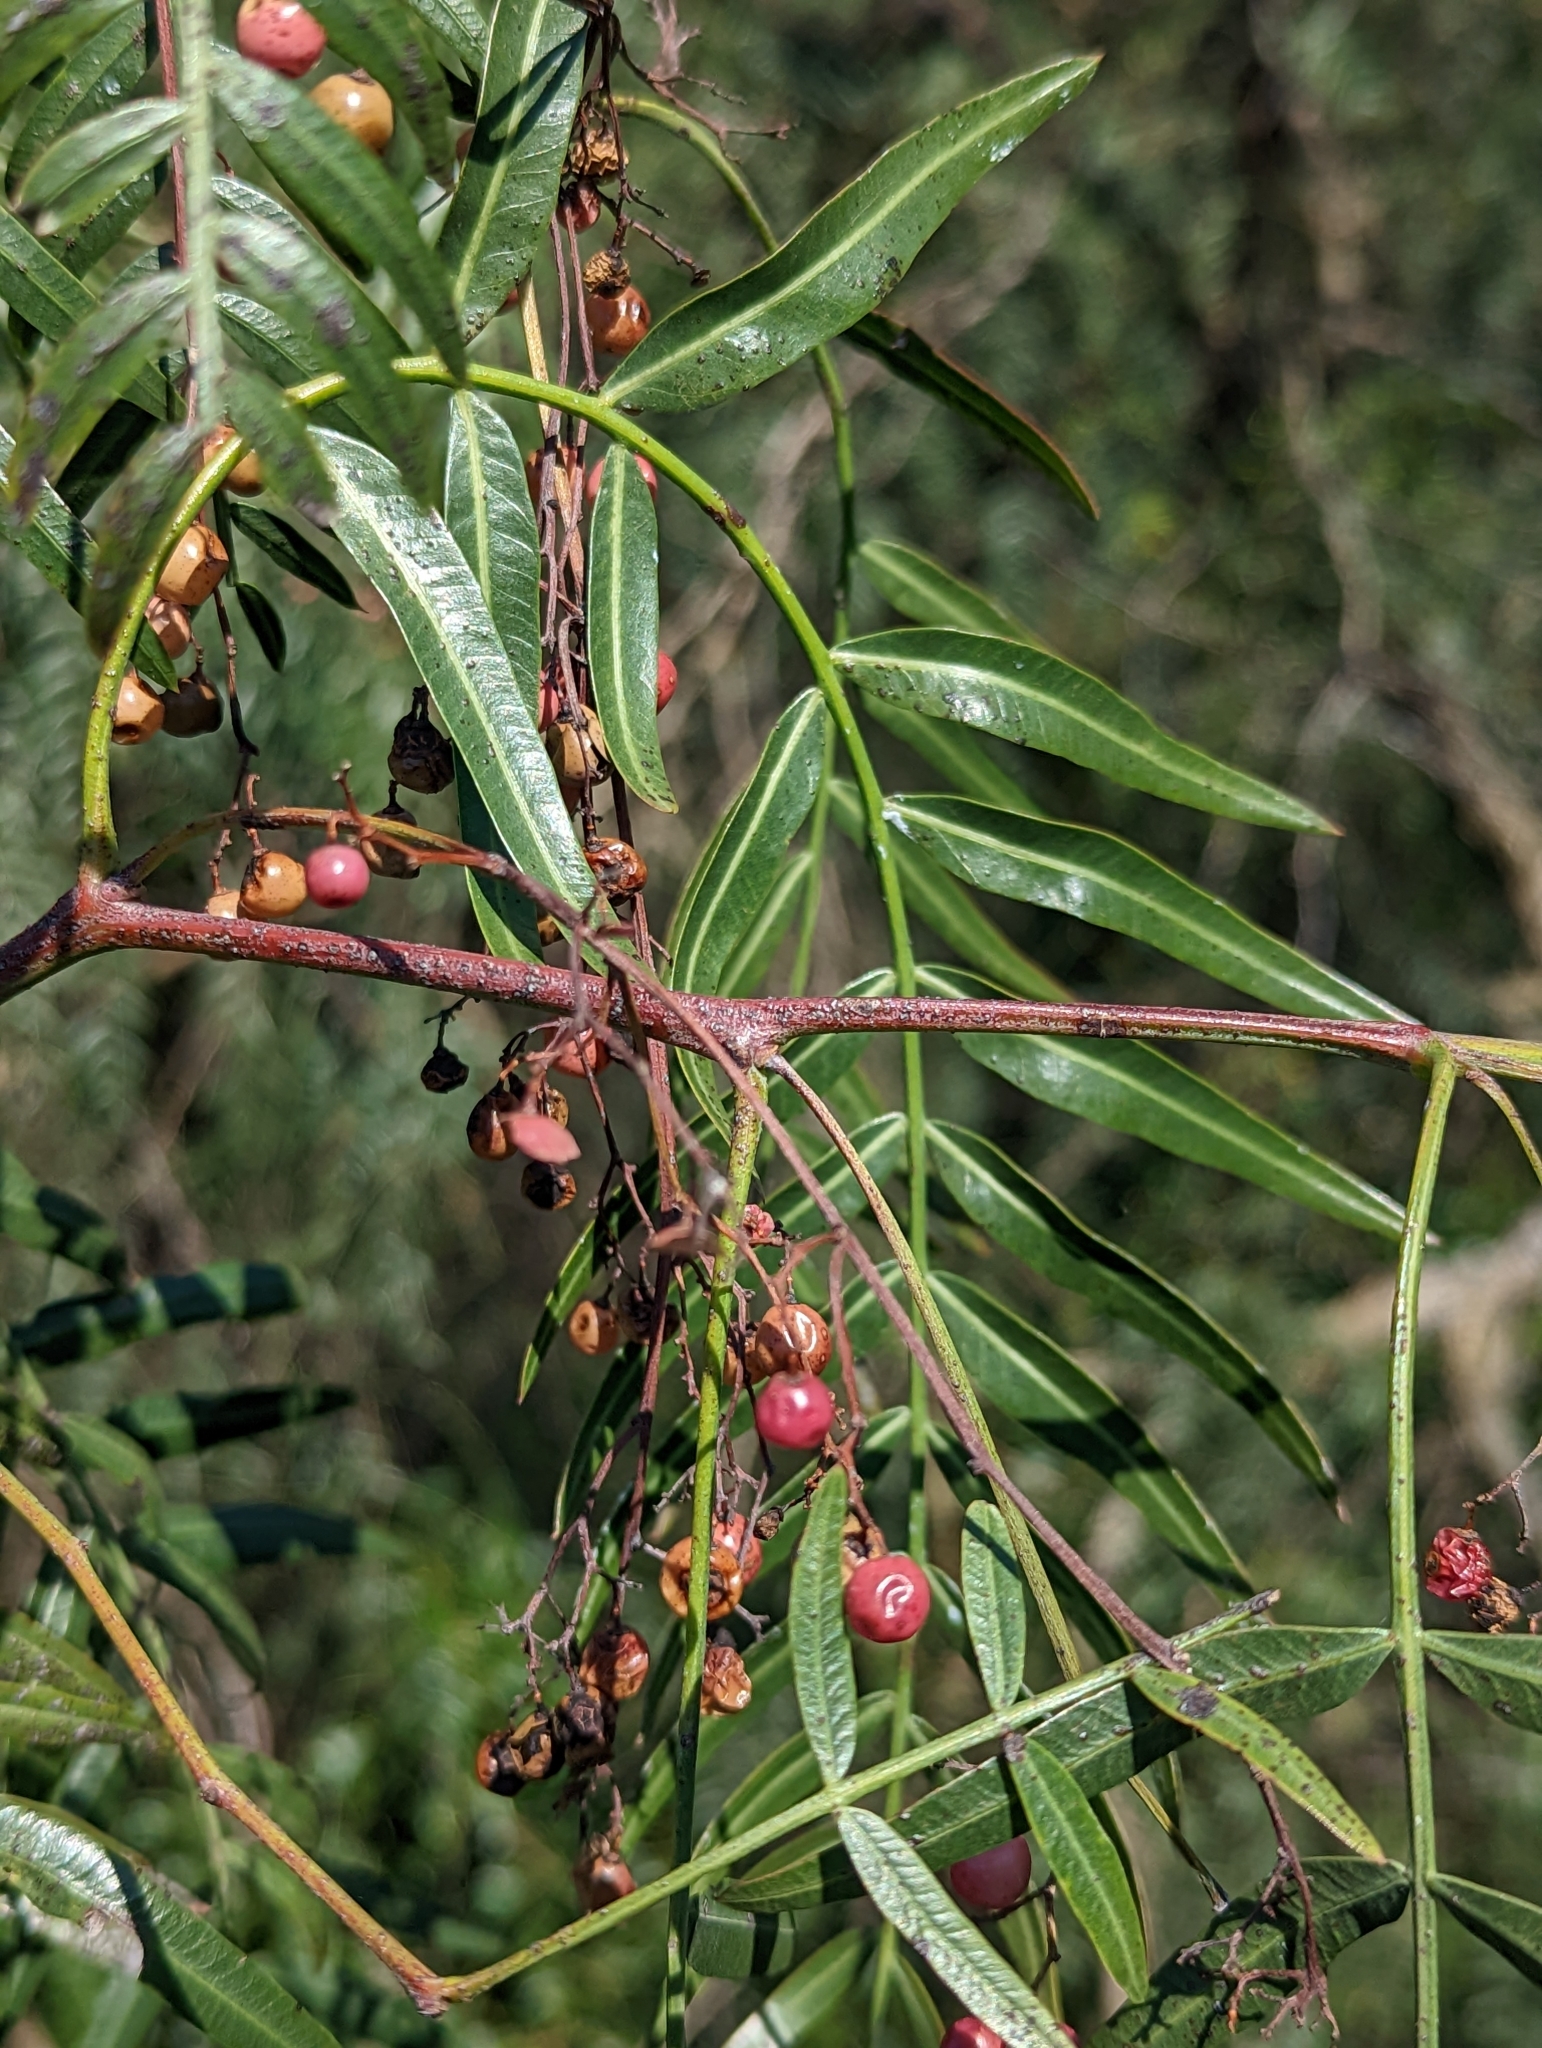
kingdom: Plantae
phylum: Tracheophyta
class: Magnoliopsida
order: Sapindales
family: Anacardiaceae
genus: Schinus
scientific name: Schinus molle
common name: Peruvian peppertree
